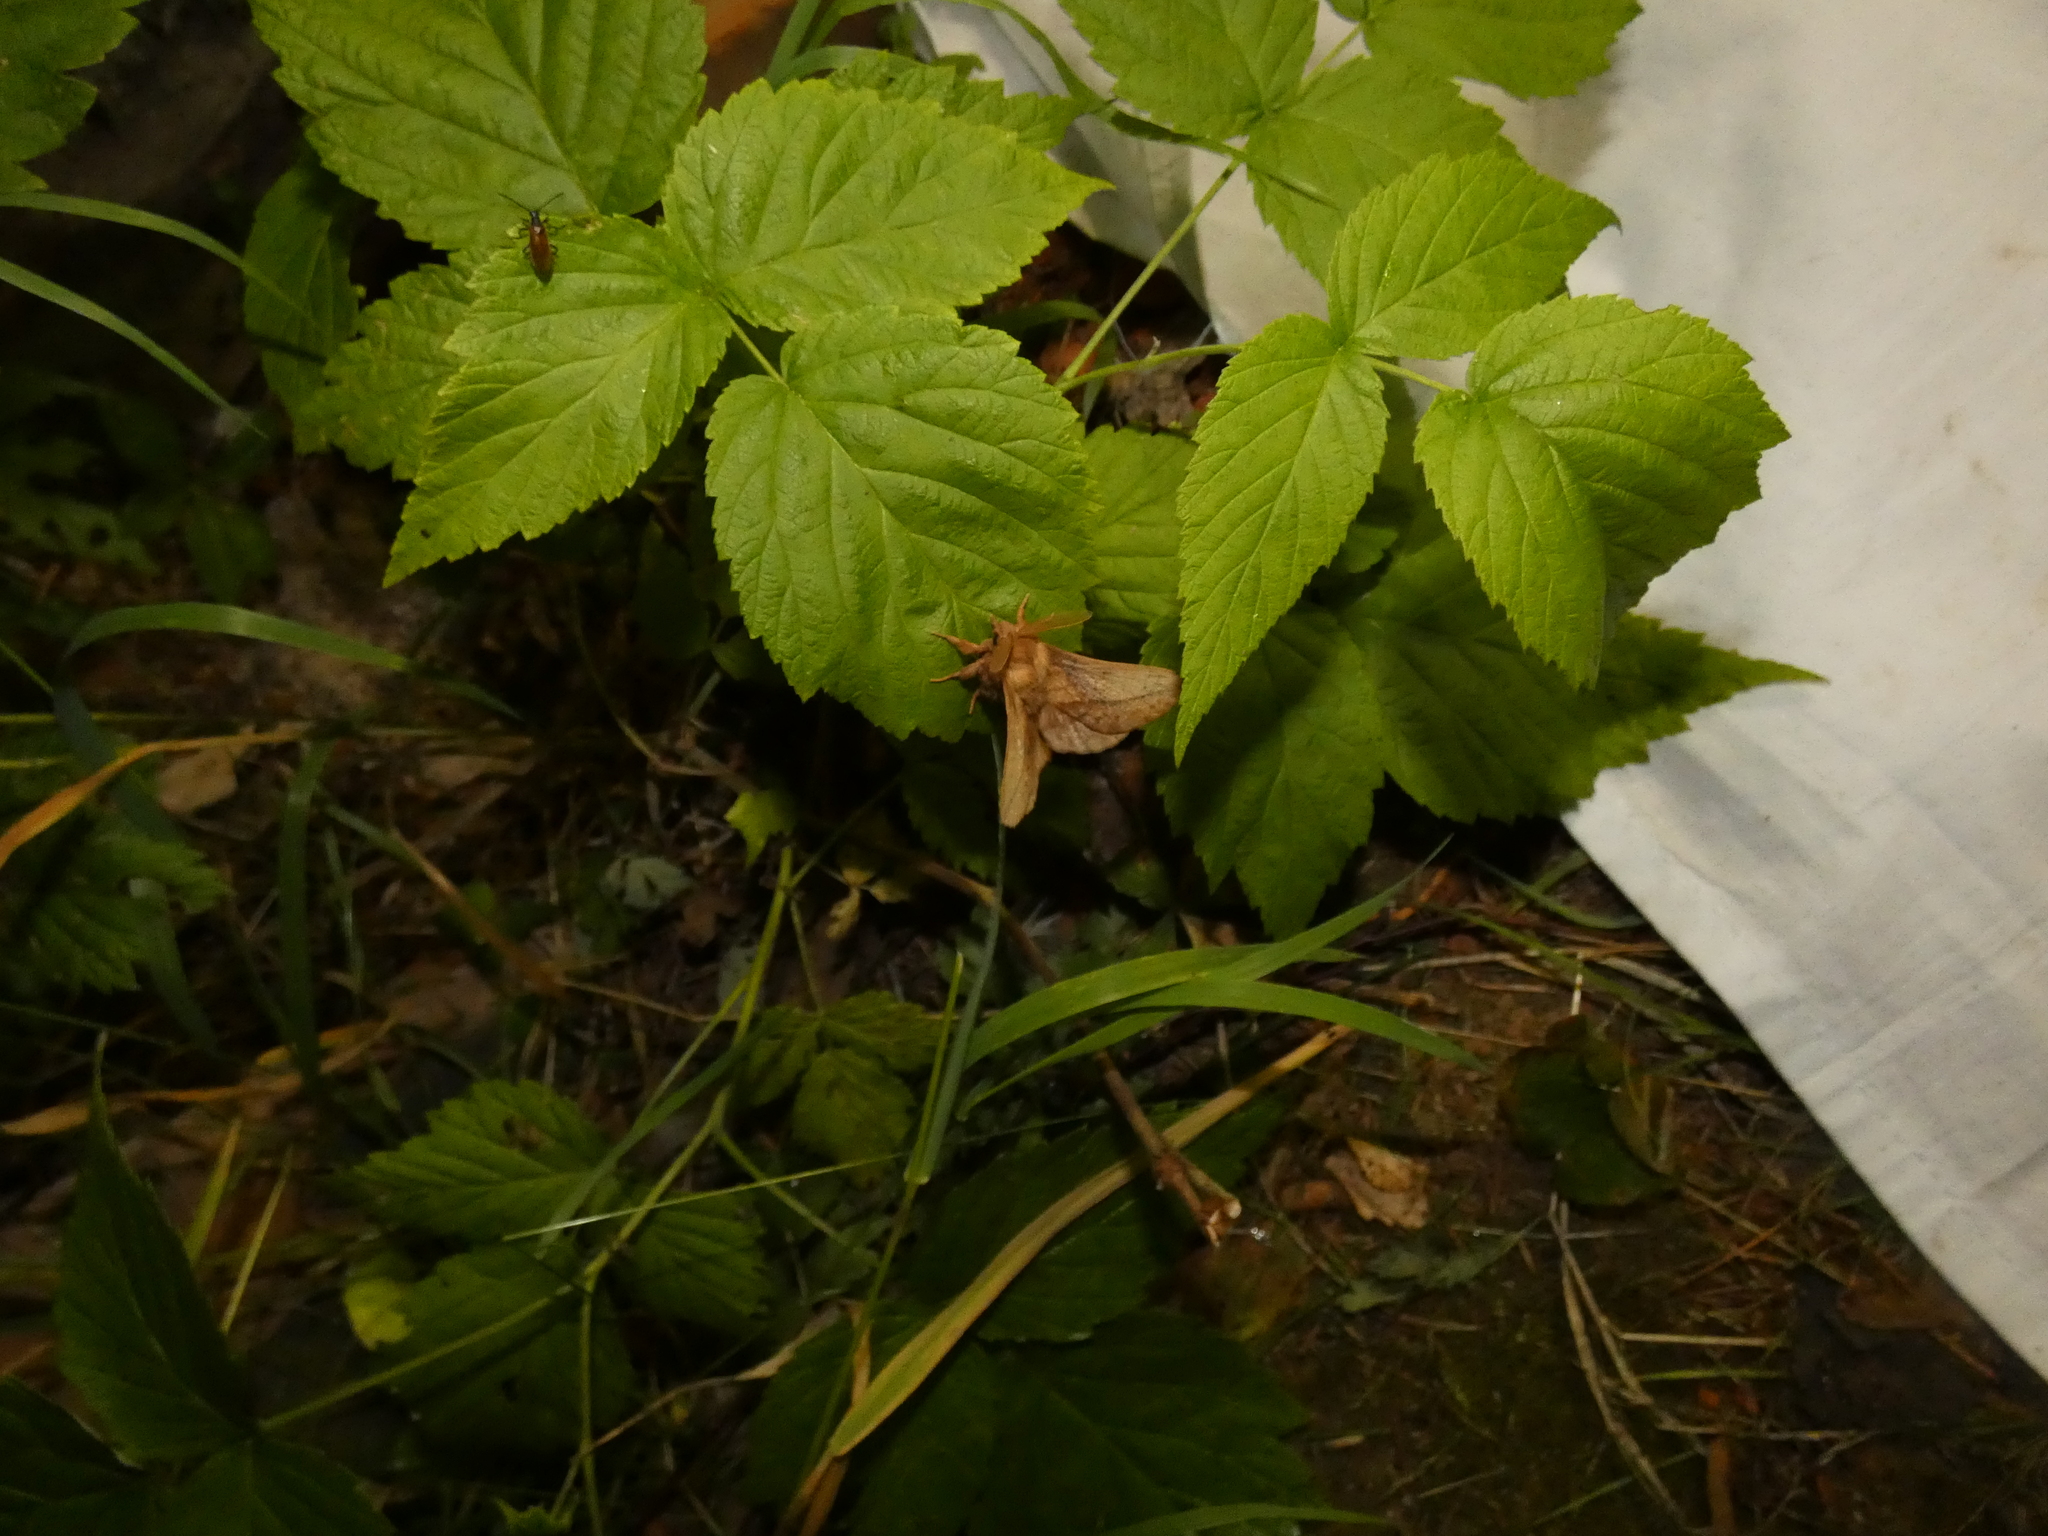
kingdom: Animalia
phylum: Arthropoda
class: Insecta
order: Lepidoptera
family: Lasiocampidae
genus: Euthrix
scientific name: Euthrix potatoria
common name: Drinker
